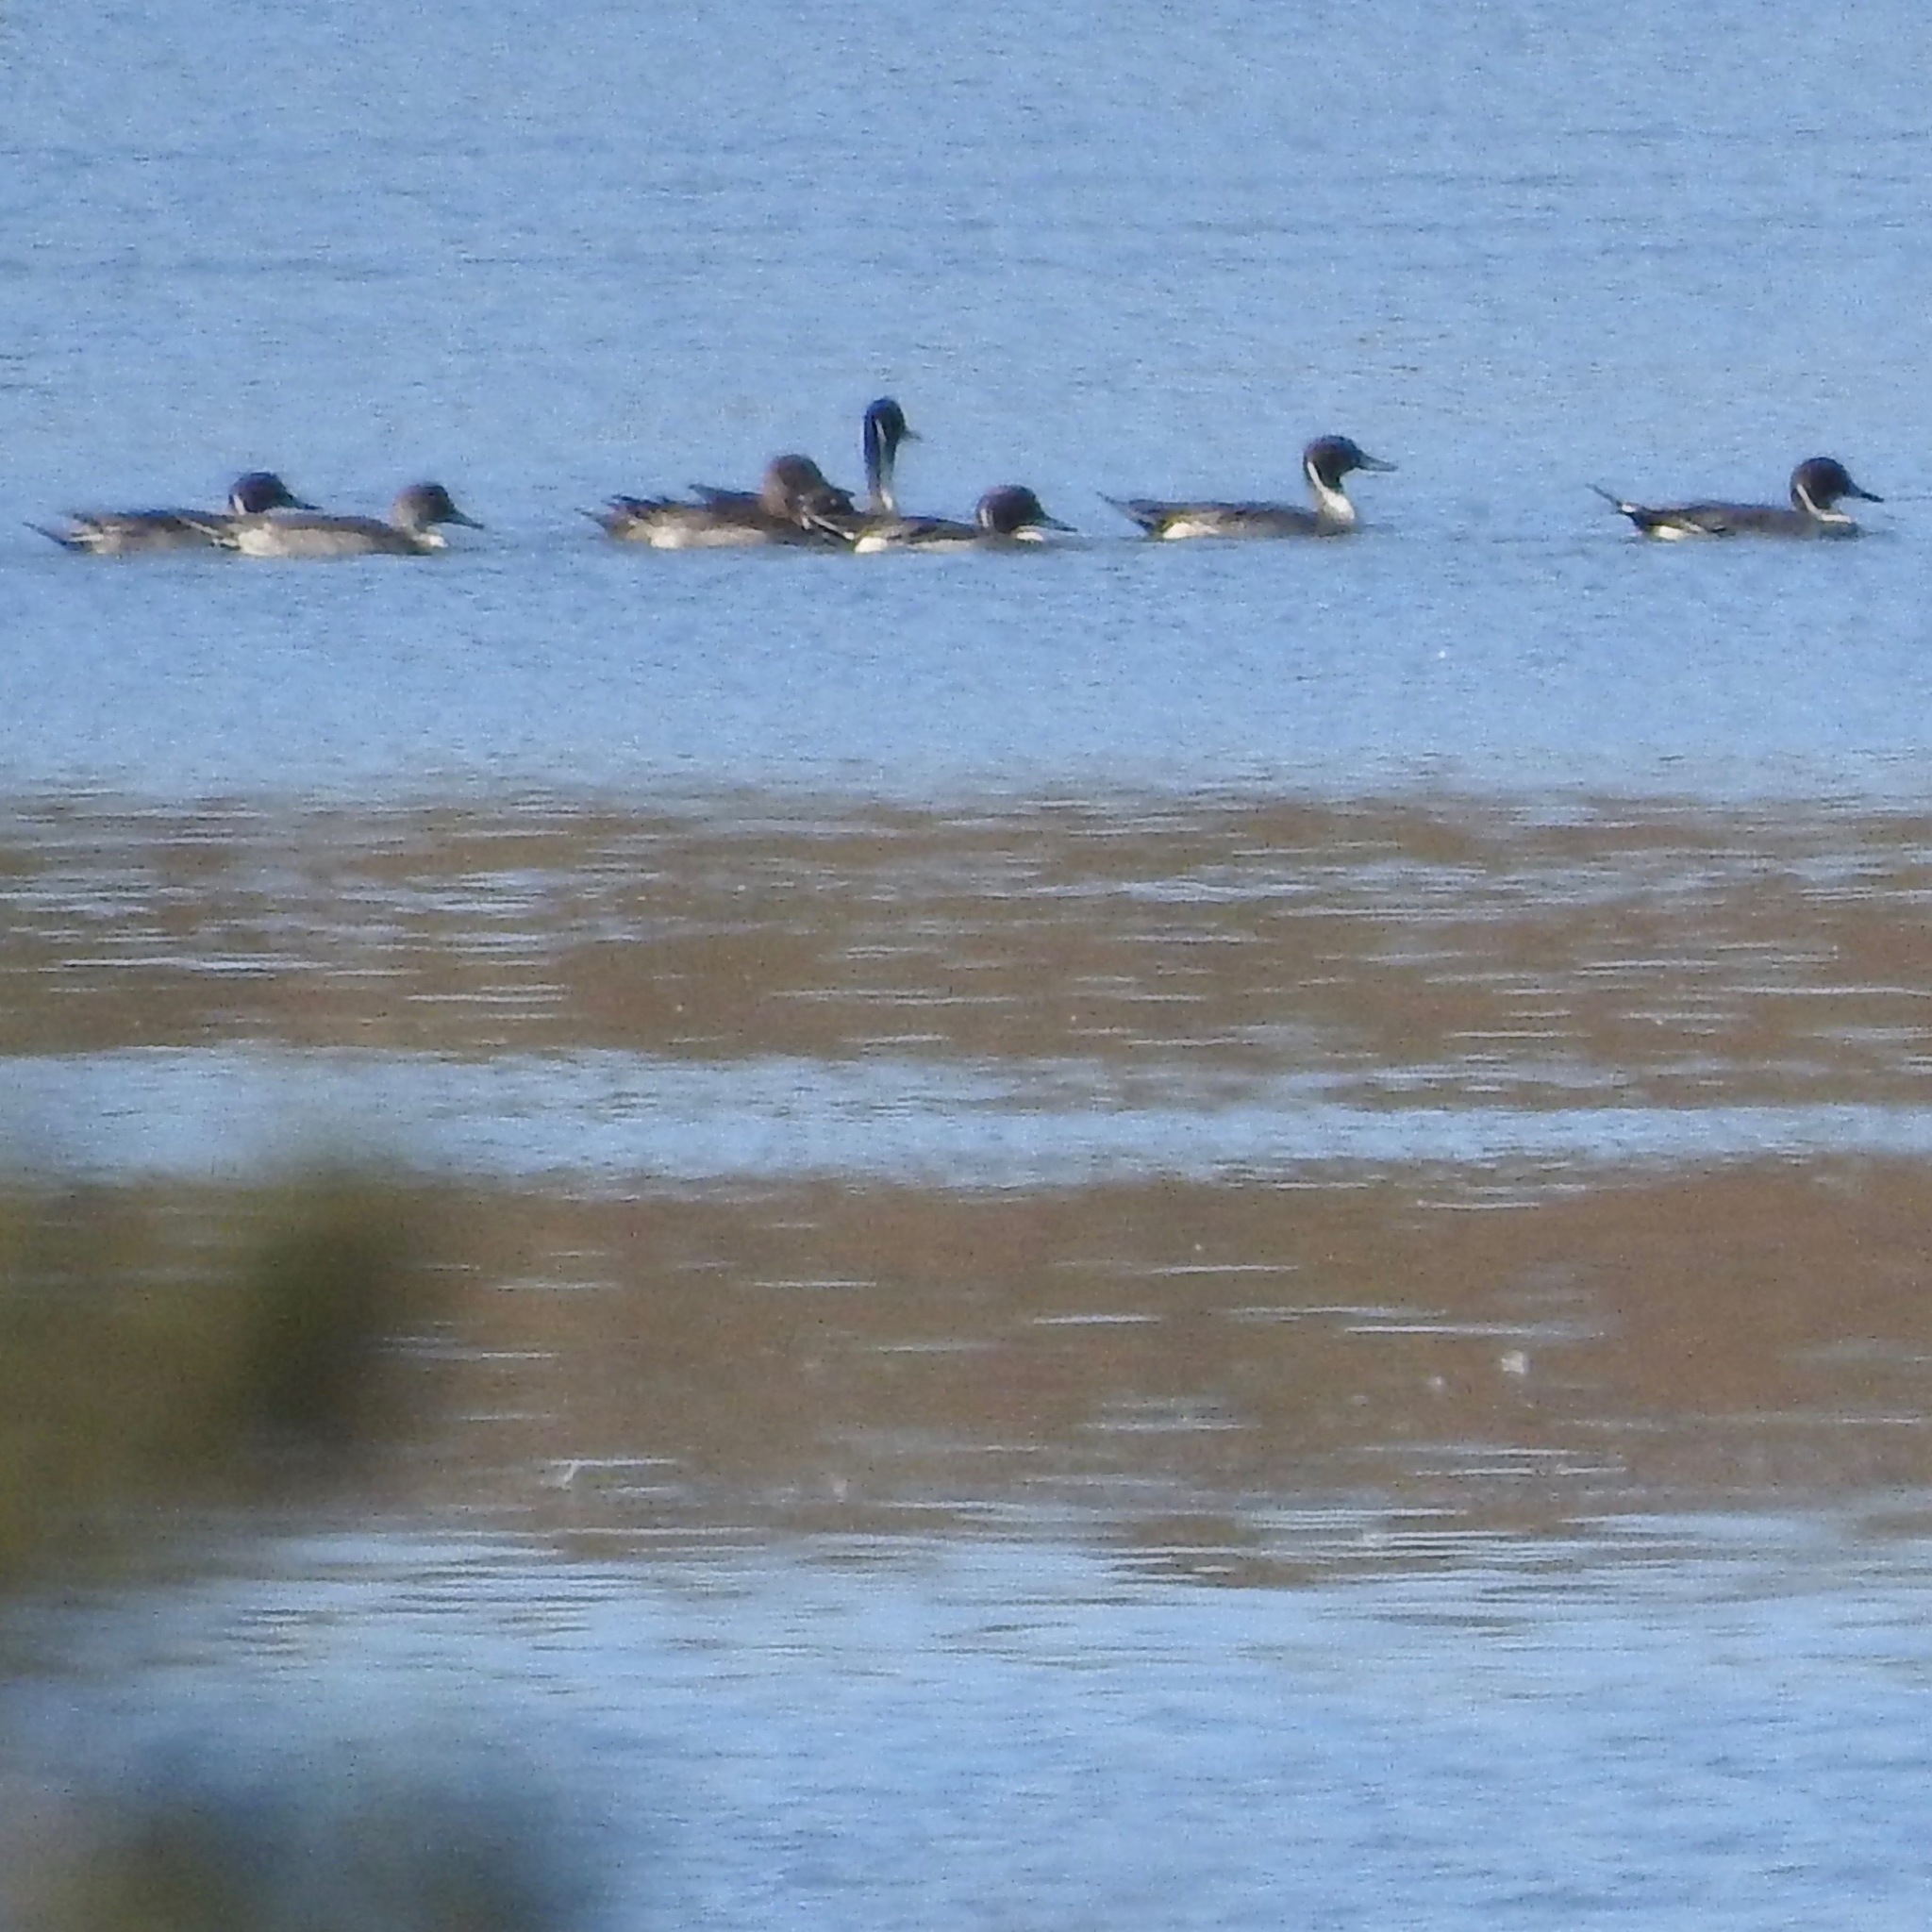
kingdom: Animalia
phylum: Chordata
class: Aves
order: Anseriformes
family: Anatidae
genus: Anas
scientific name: Anas acuta
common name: Northern pintail
